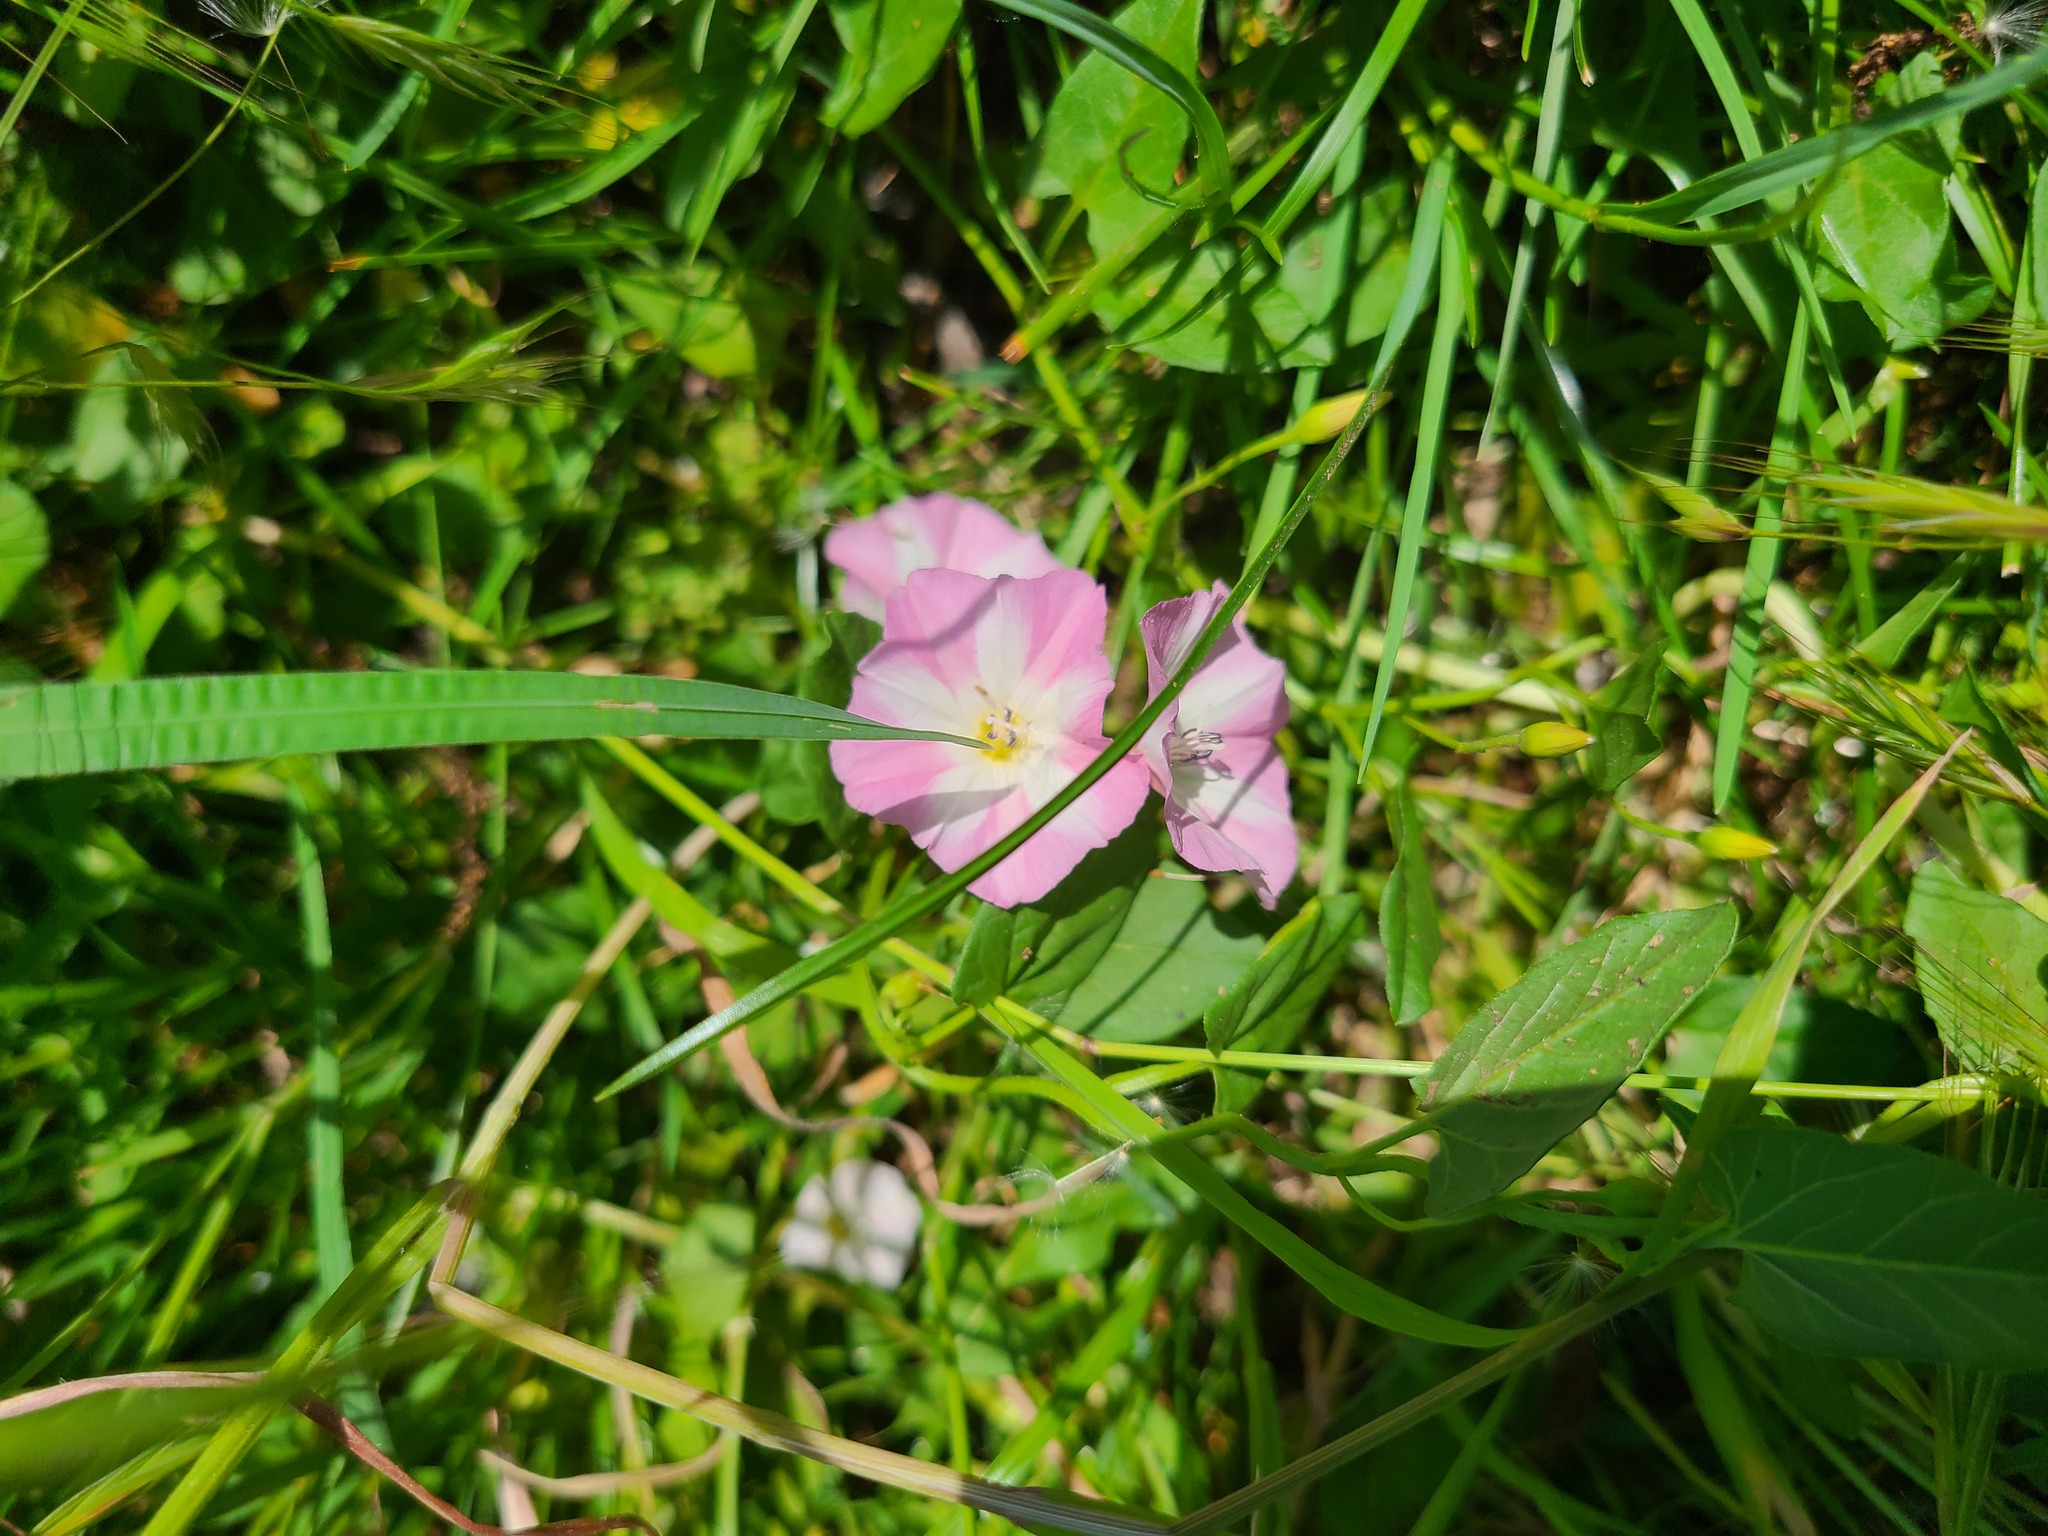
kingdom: Plantae
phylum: Tracheophyta
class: Magnoliopsida
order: Solanales
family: Convolvulaceae
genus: Convolvulus
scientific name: Convolvulus arvensis
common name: Field bindweed
